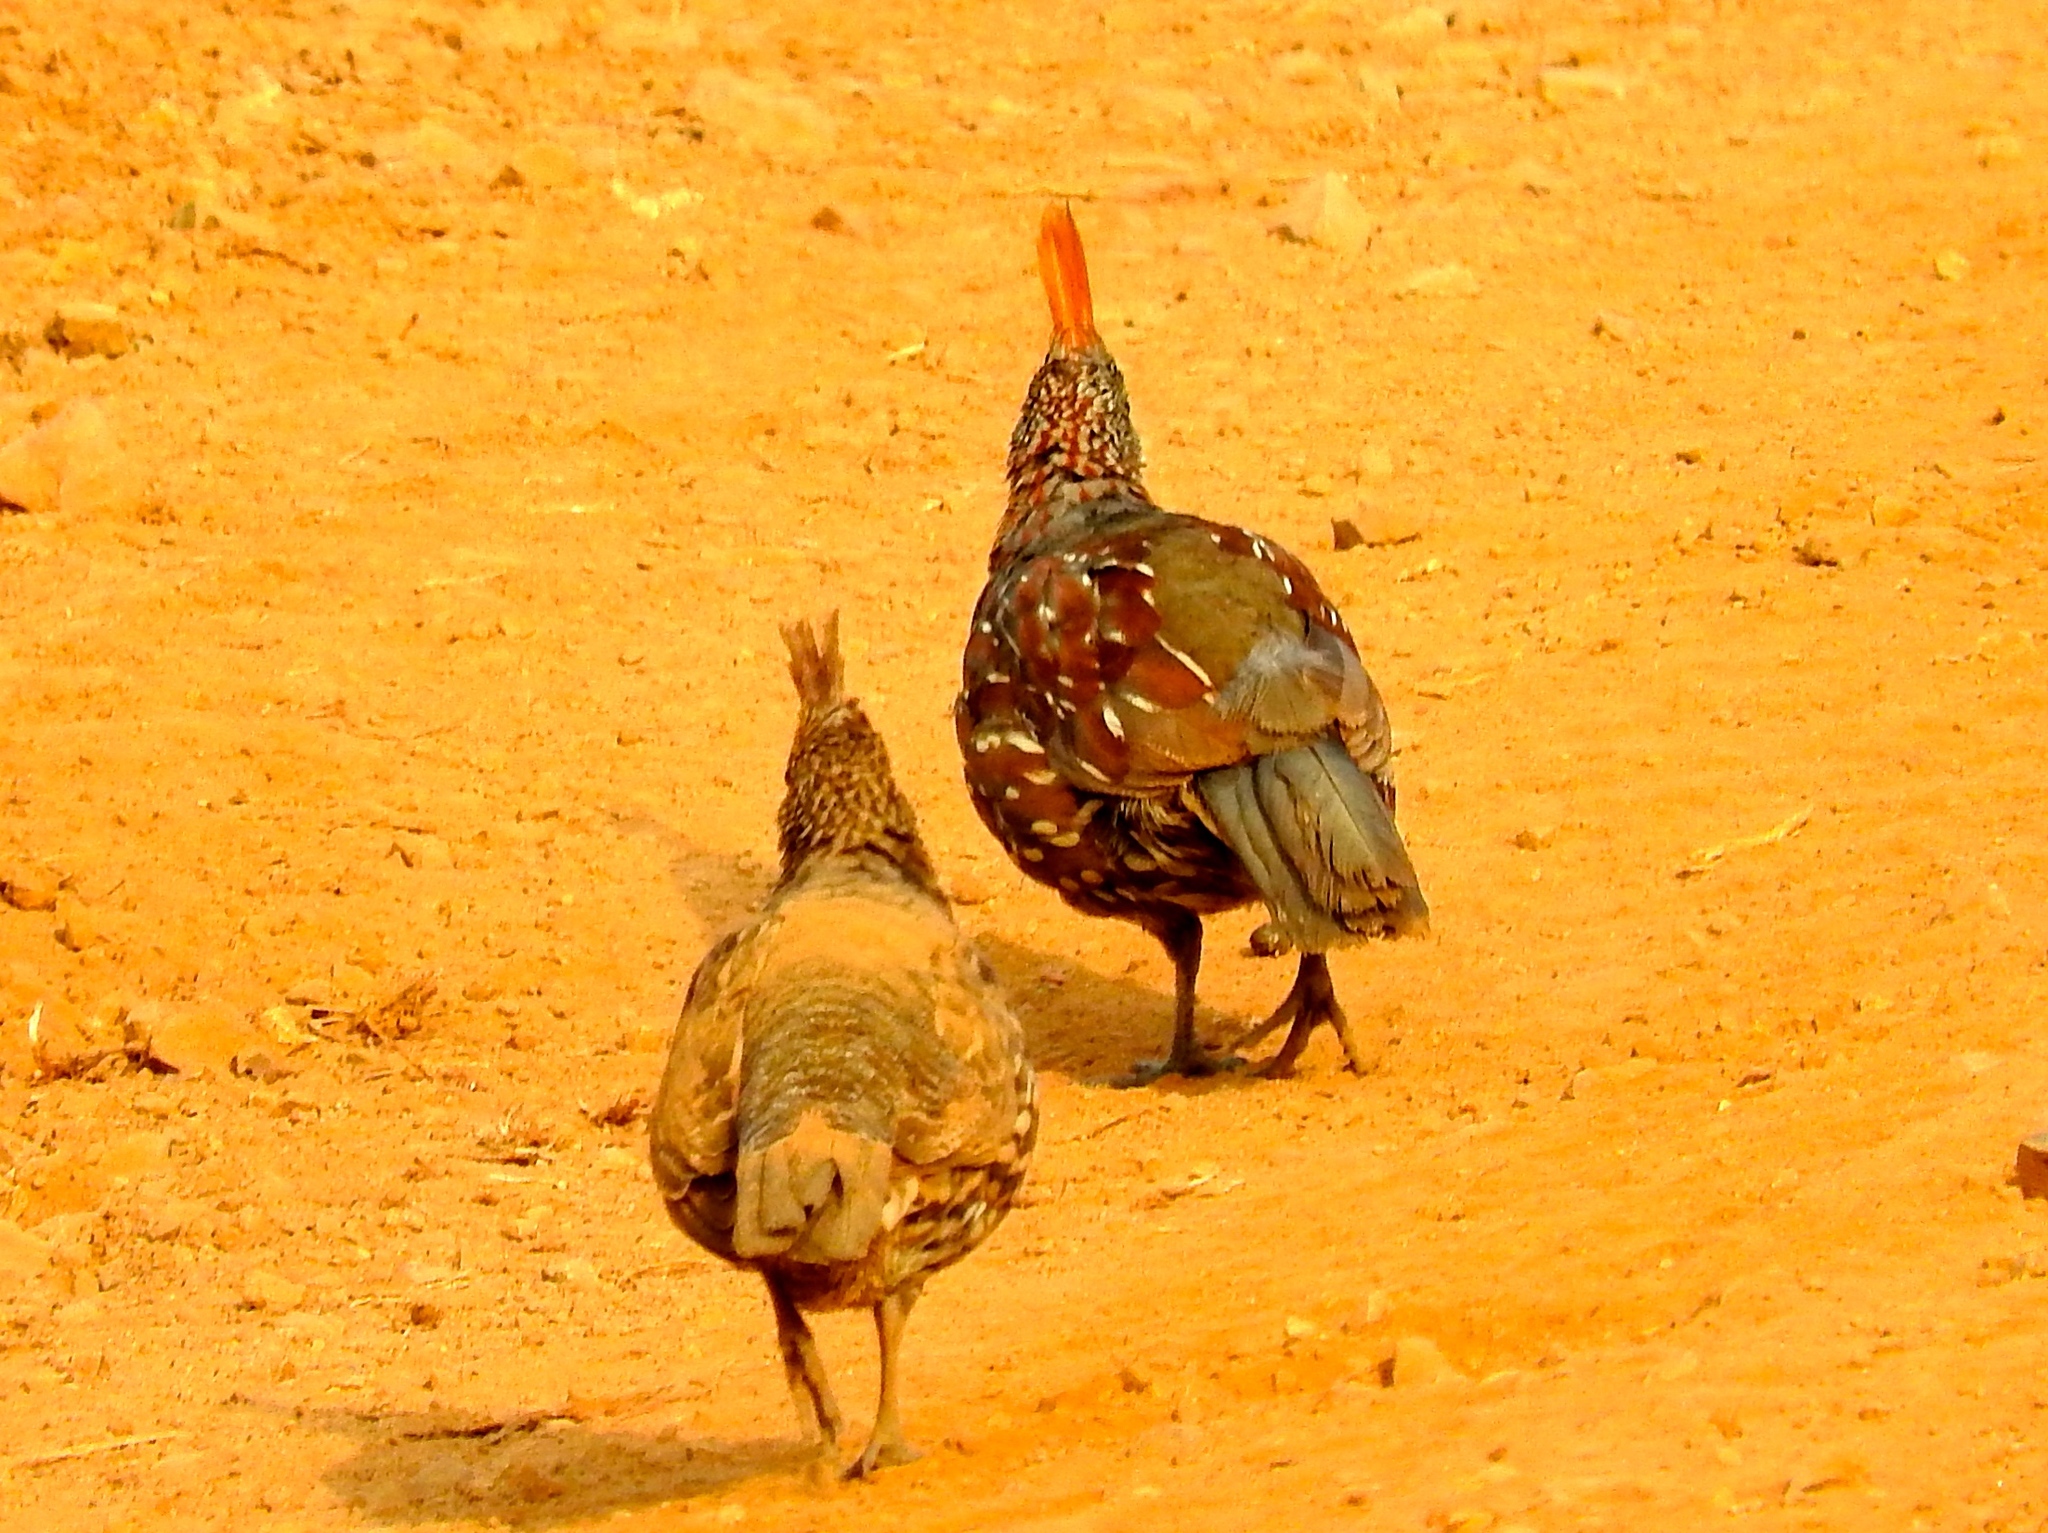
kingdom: Animalia
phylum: Chordata
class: Aves
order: Galliformes
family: Odontophoridae
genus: Callipepla
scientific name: Callipepla douglasii
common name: Elegant quail
